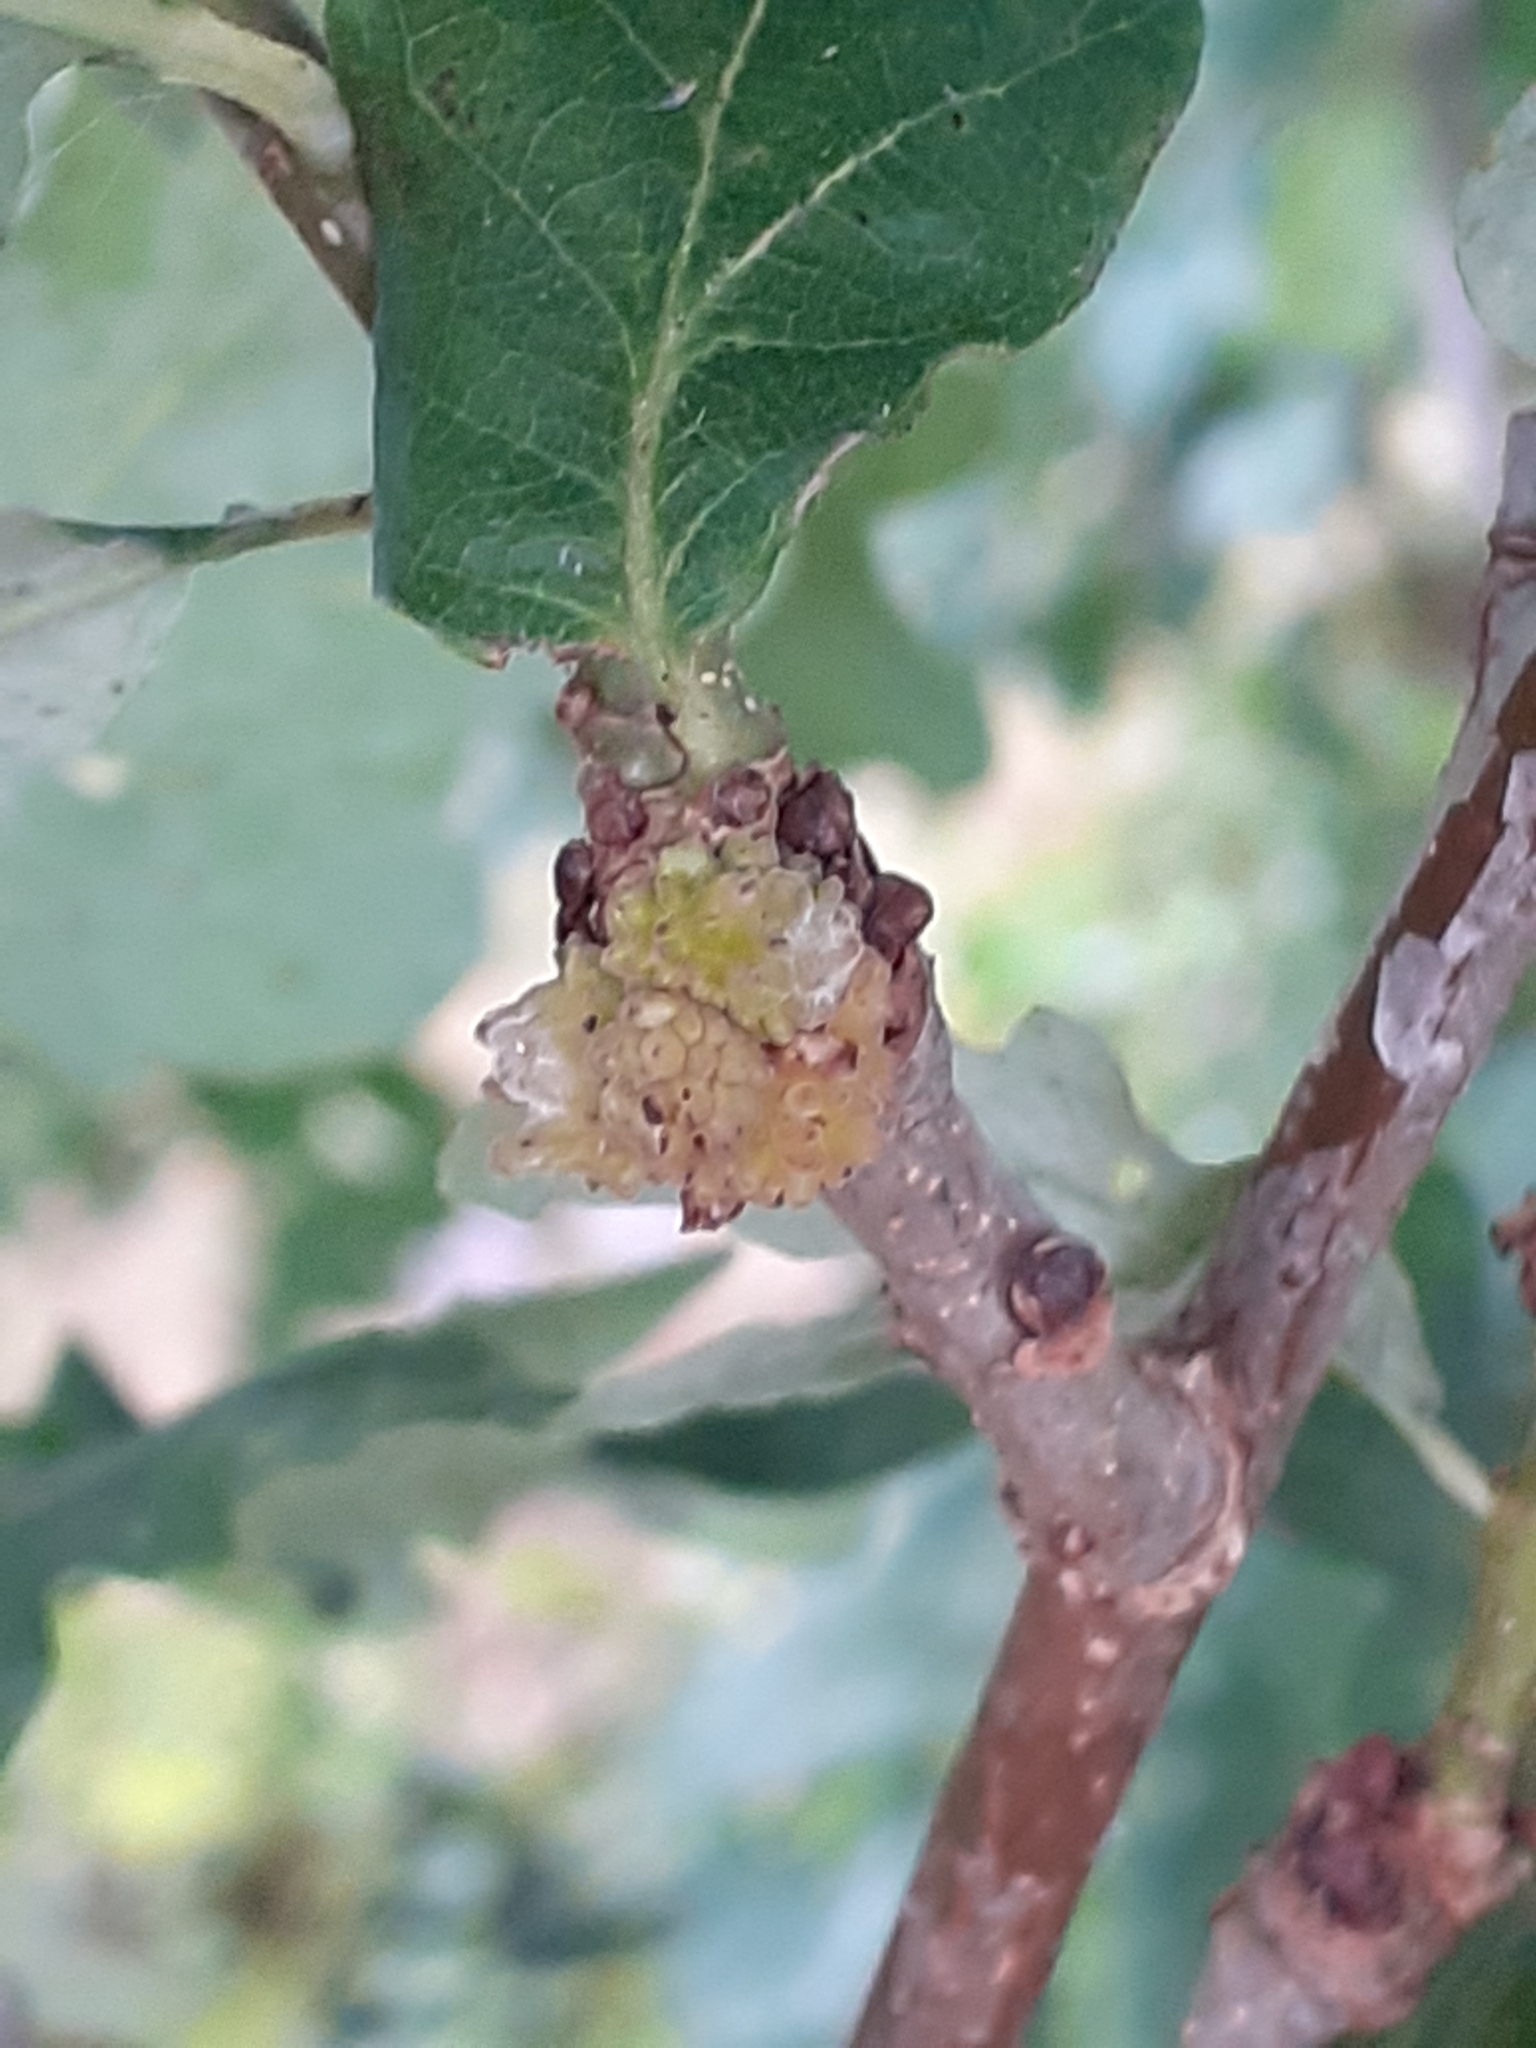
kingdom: Animalia
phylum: Arthropoda
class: Insecta
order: Hymenoptera
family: Cynipidae
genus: Andricus
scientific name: Andricus gemmeus
